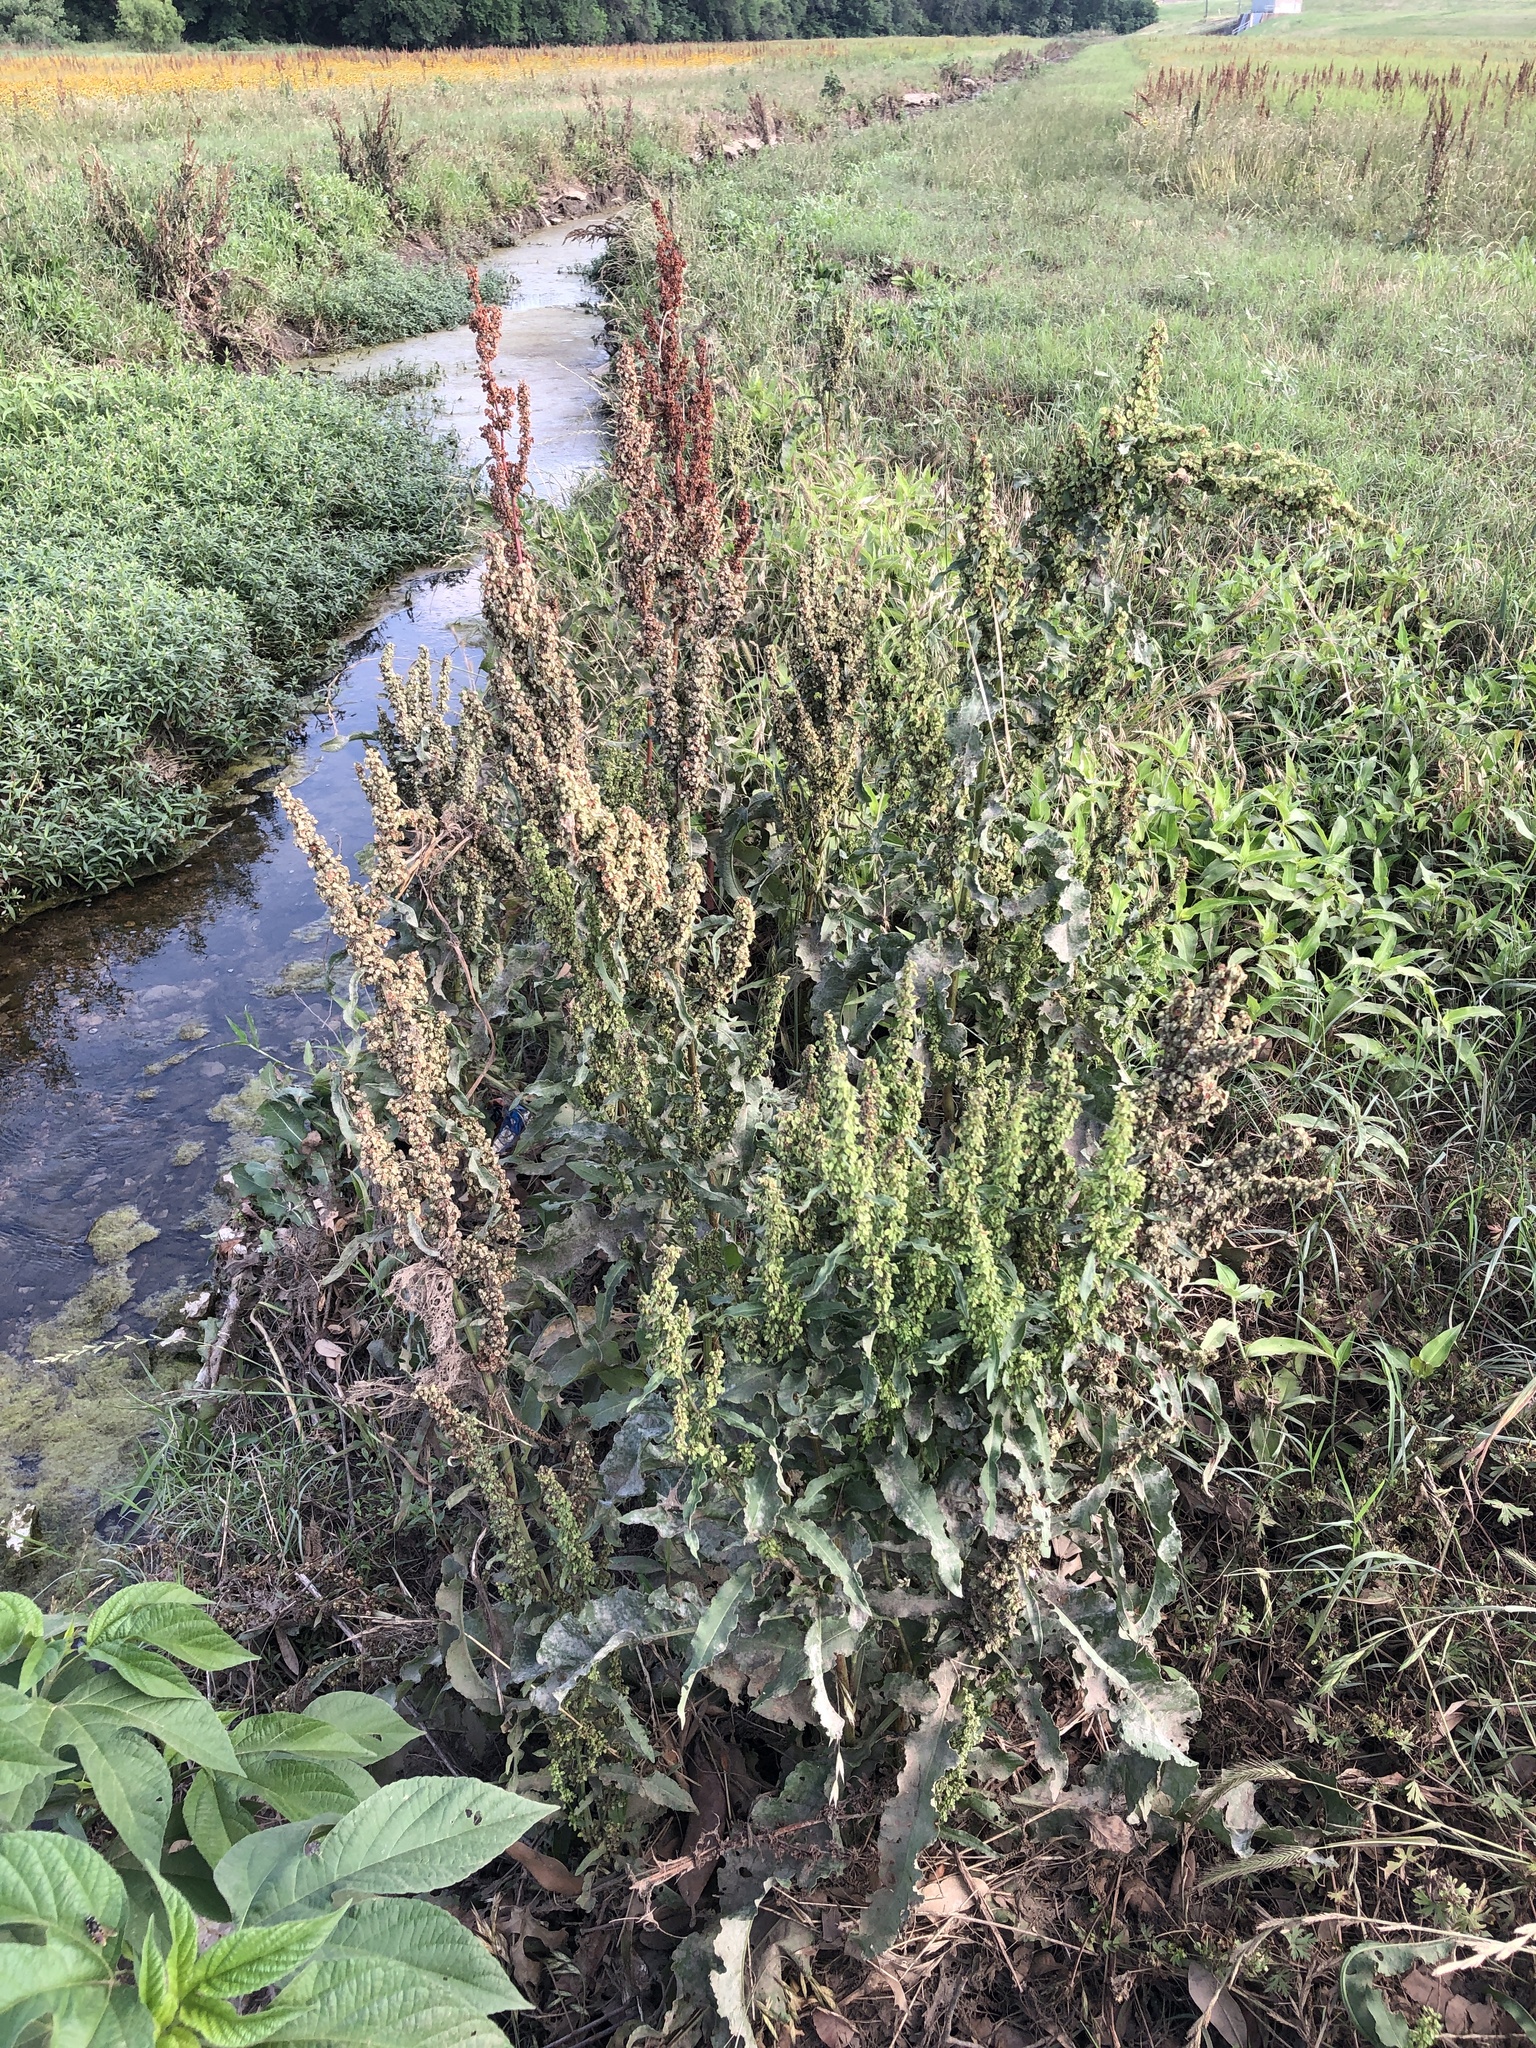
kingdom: Plantae
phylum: Tracheophyta
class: Magnoliopsida
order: Caryophyllales
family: Polygonaceae
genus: Rumex
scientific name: Rumex crispus
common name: Curled dock
